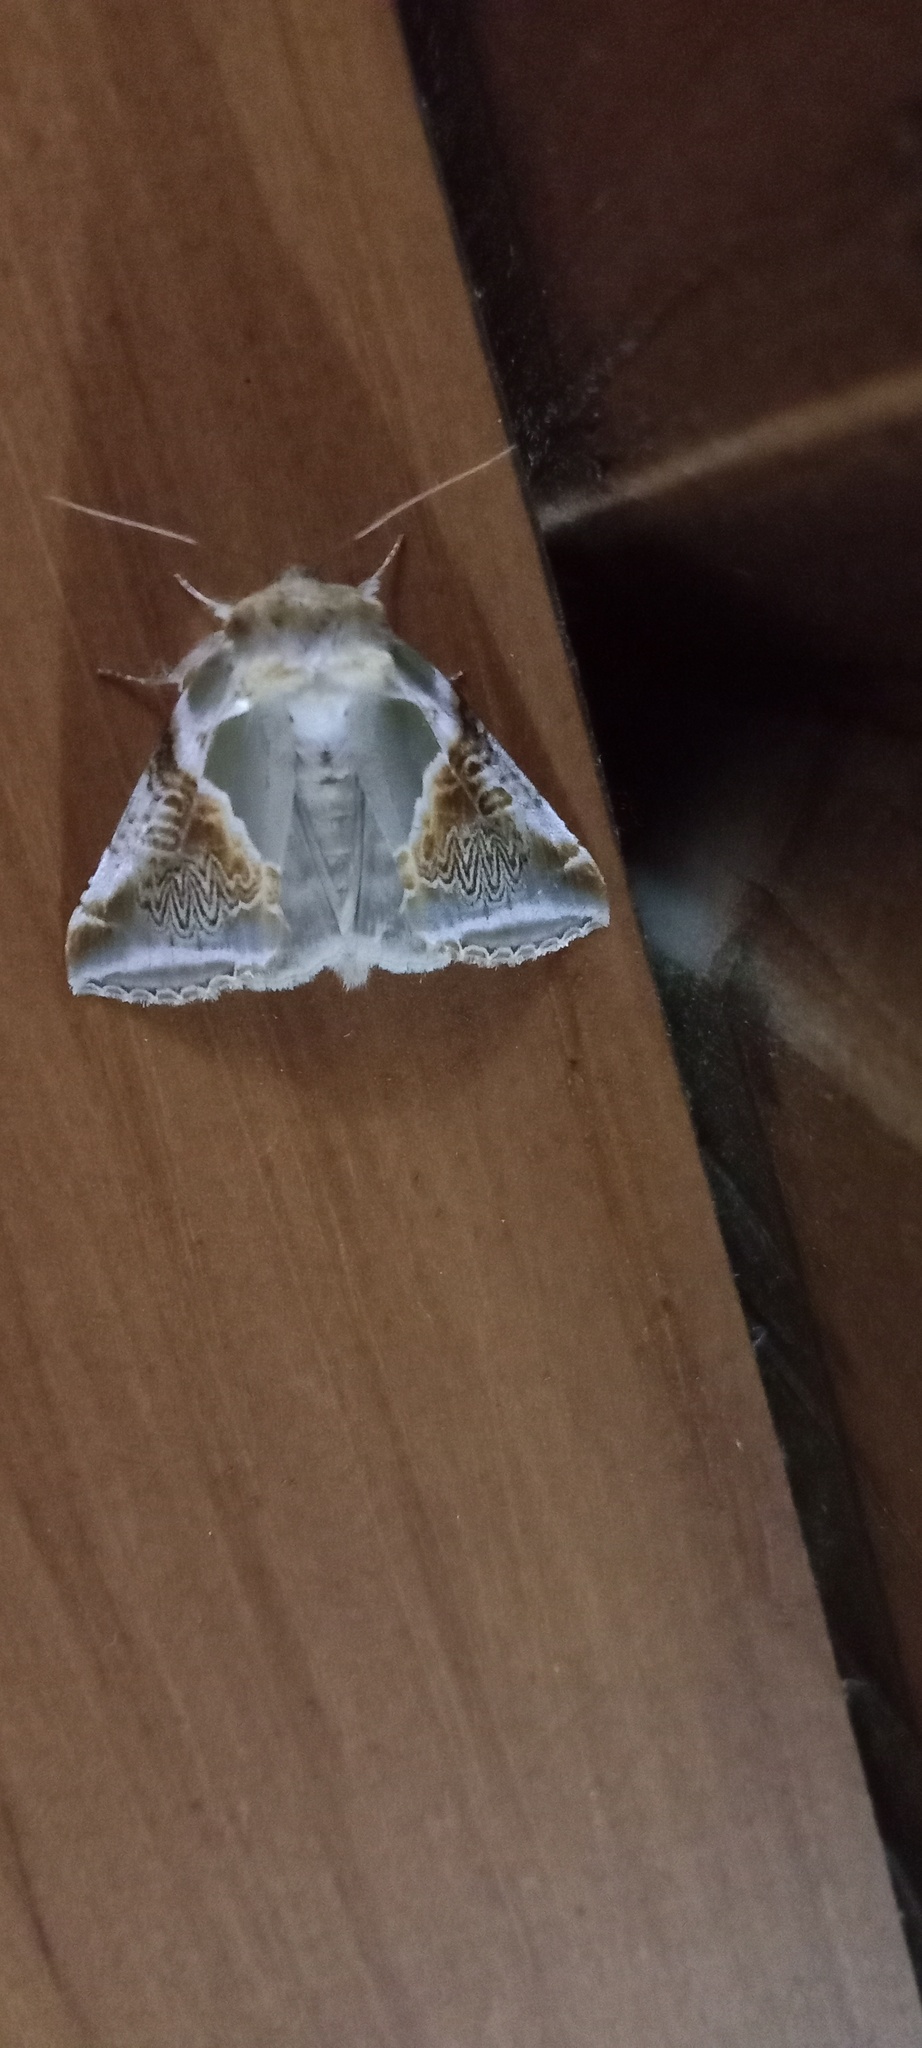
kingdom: Animalia
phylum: Arthropoda
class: Insecta
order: Lepidoptera
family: Drepanidae
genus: Habrosyne
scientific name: Habrosyne pyritoides
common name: Buff arches
